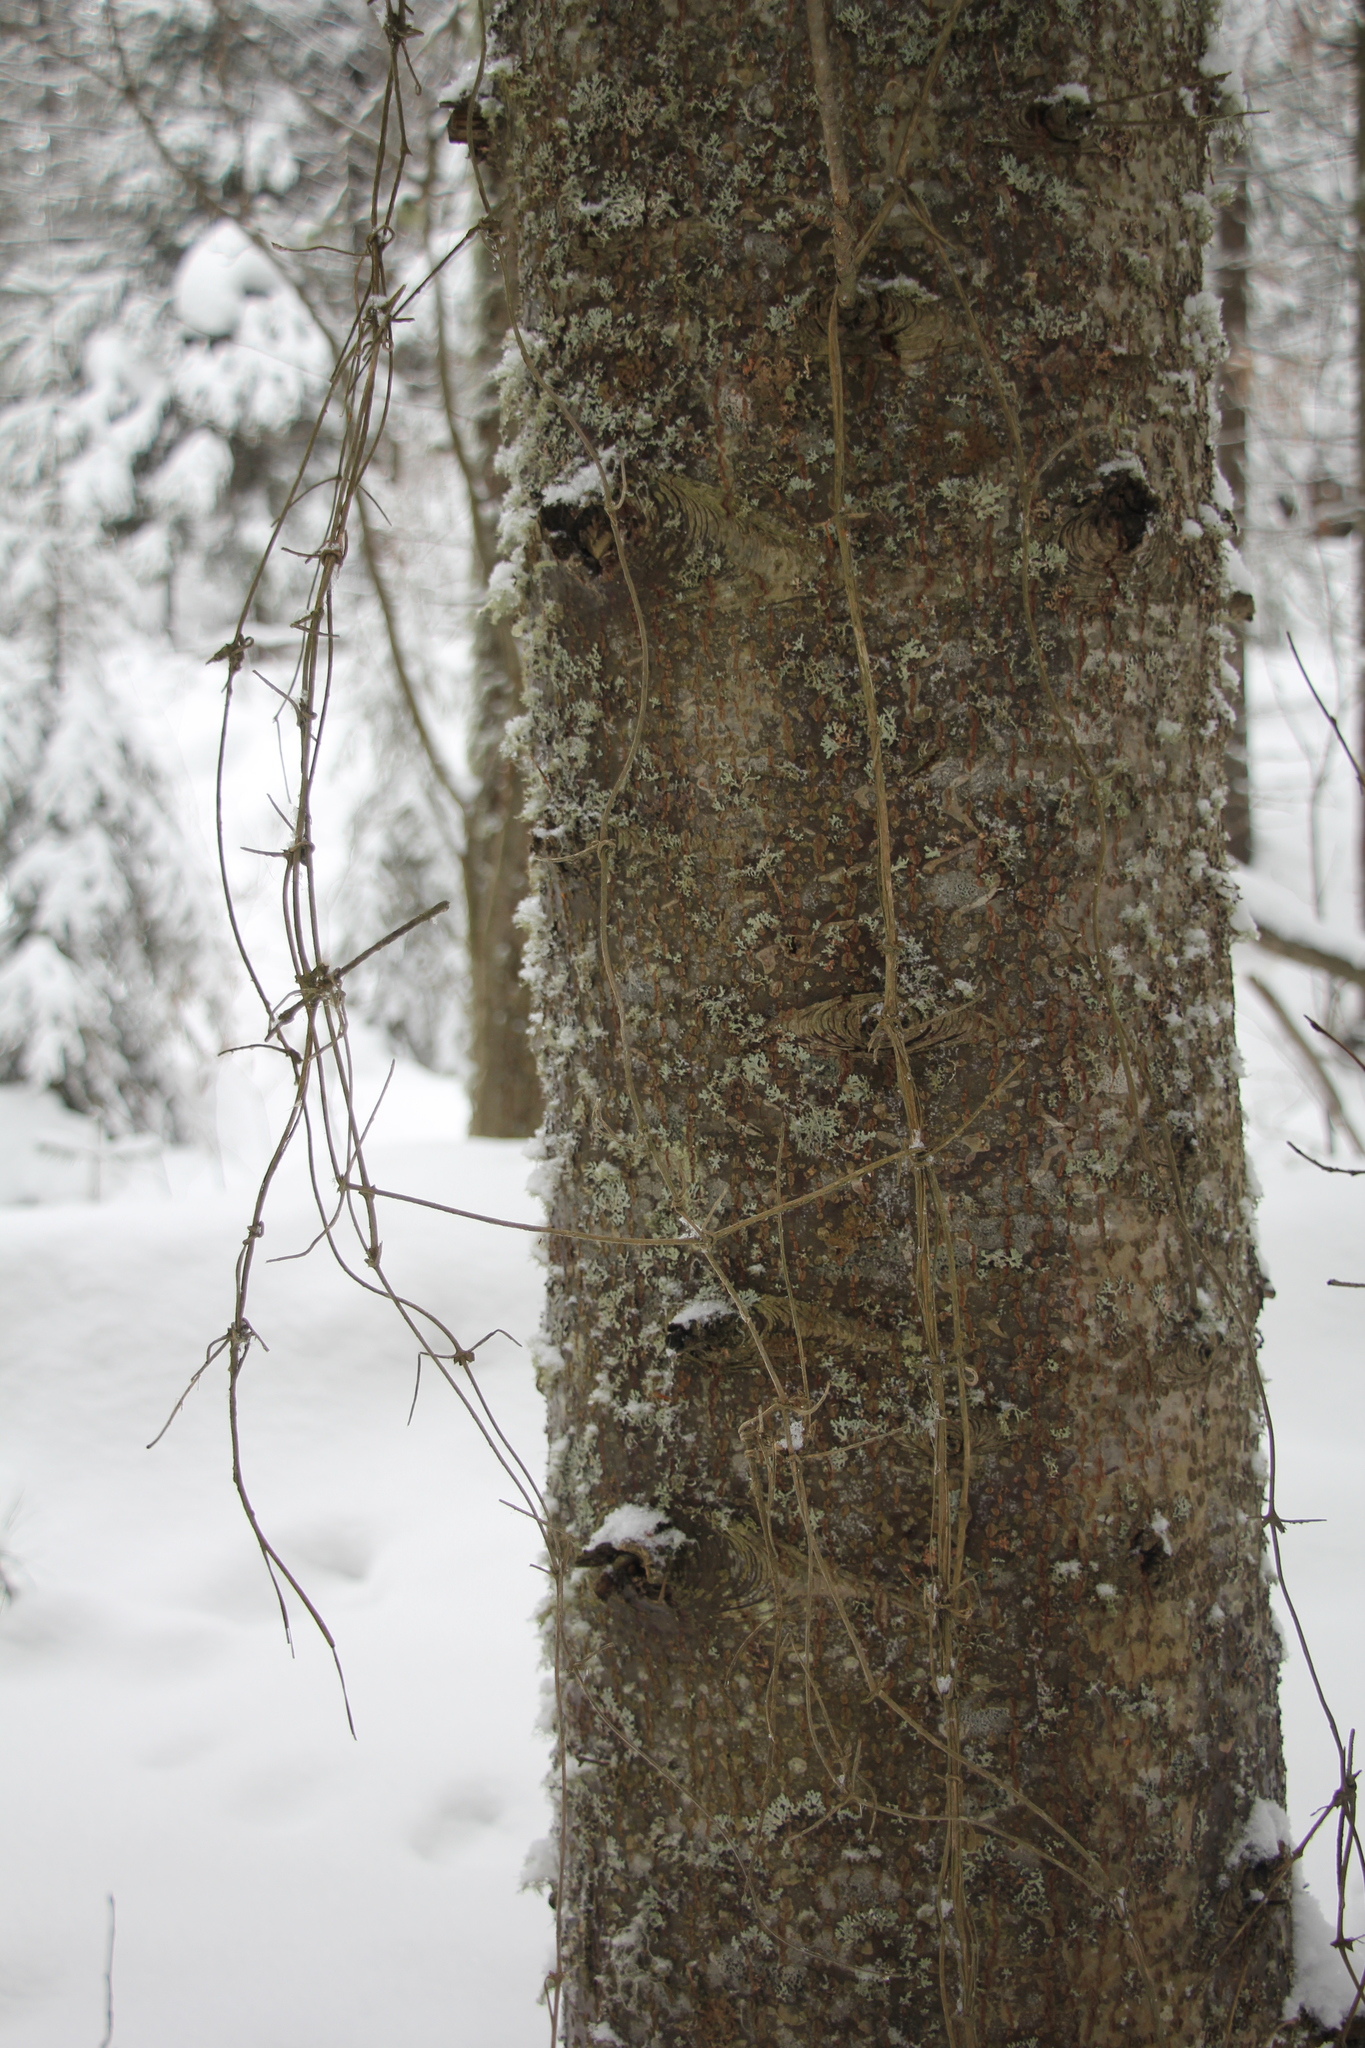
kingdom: Plantae
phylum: Tracheophyta
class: Magnoliopsida
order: Ranunculales
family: Ranunculaceae
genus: Clematis
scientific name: Clematis sibirica
